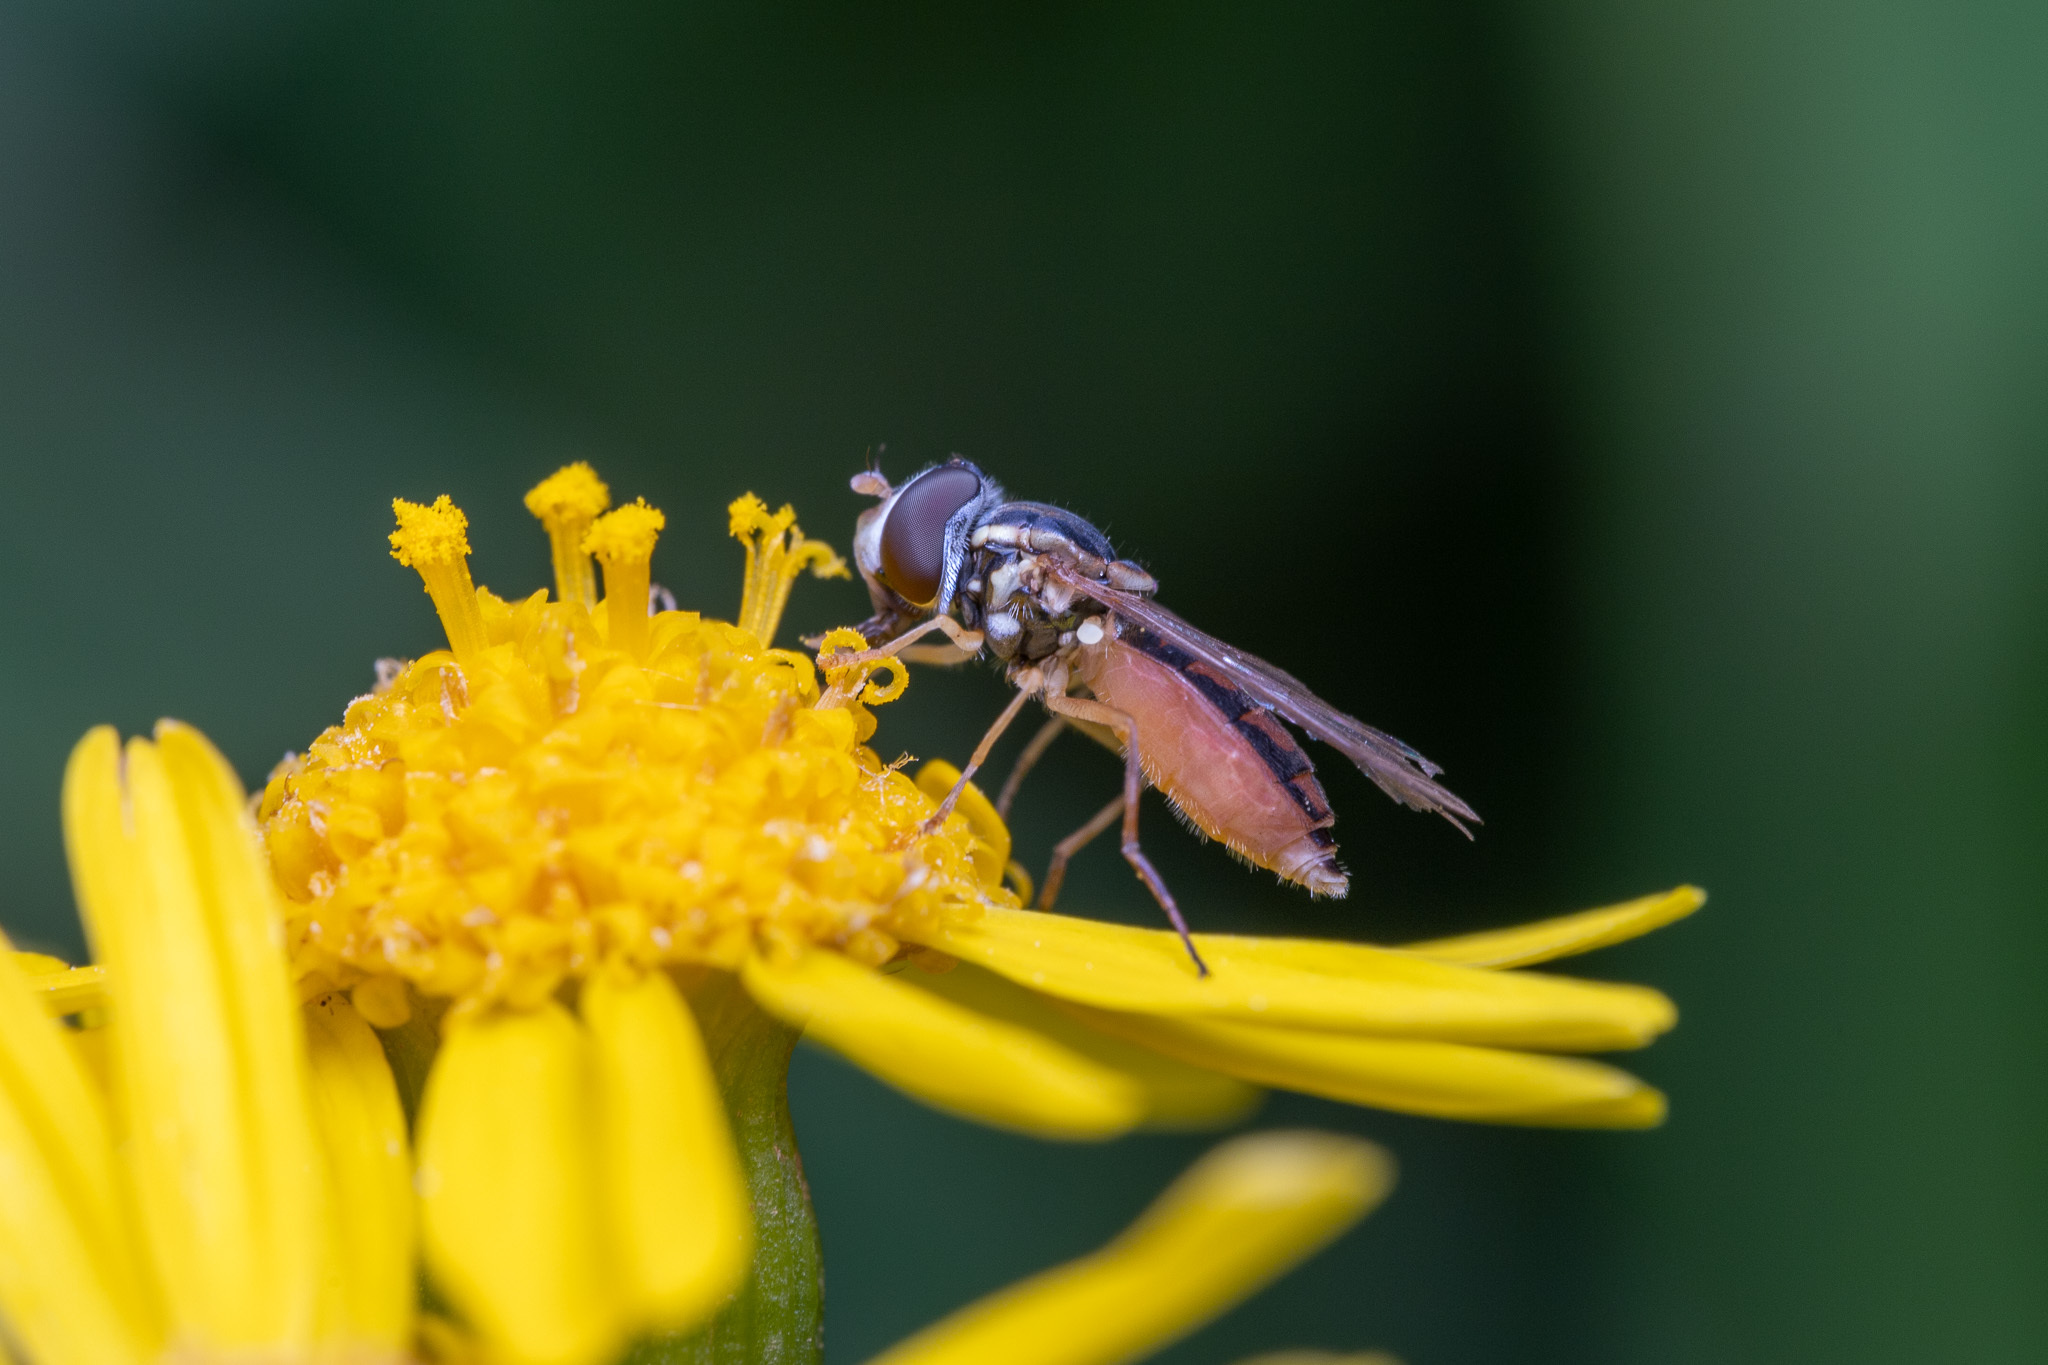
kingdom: Animalia
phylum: Arthropoda
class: Insecta
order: Diptera
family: Syrphidae
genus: Toxomerus
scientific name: Toxomerus marginatus
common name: Syrphid fly
